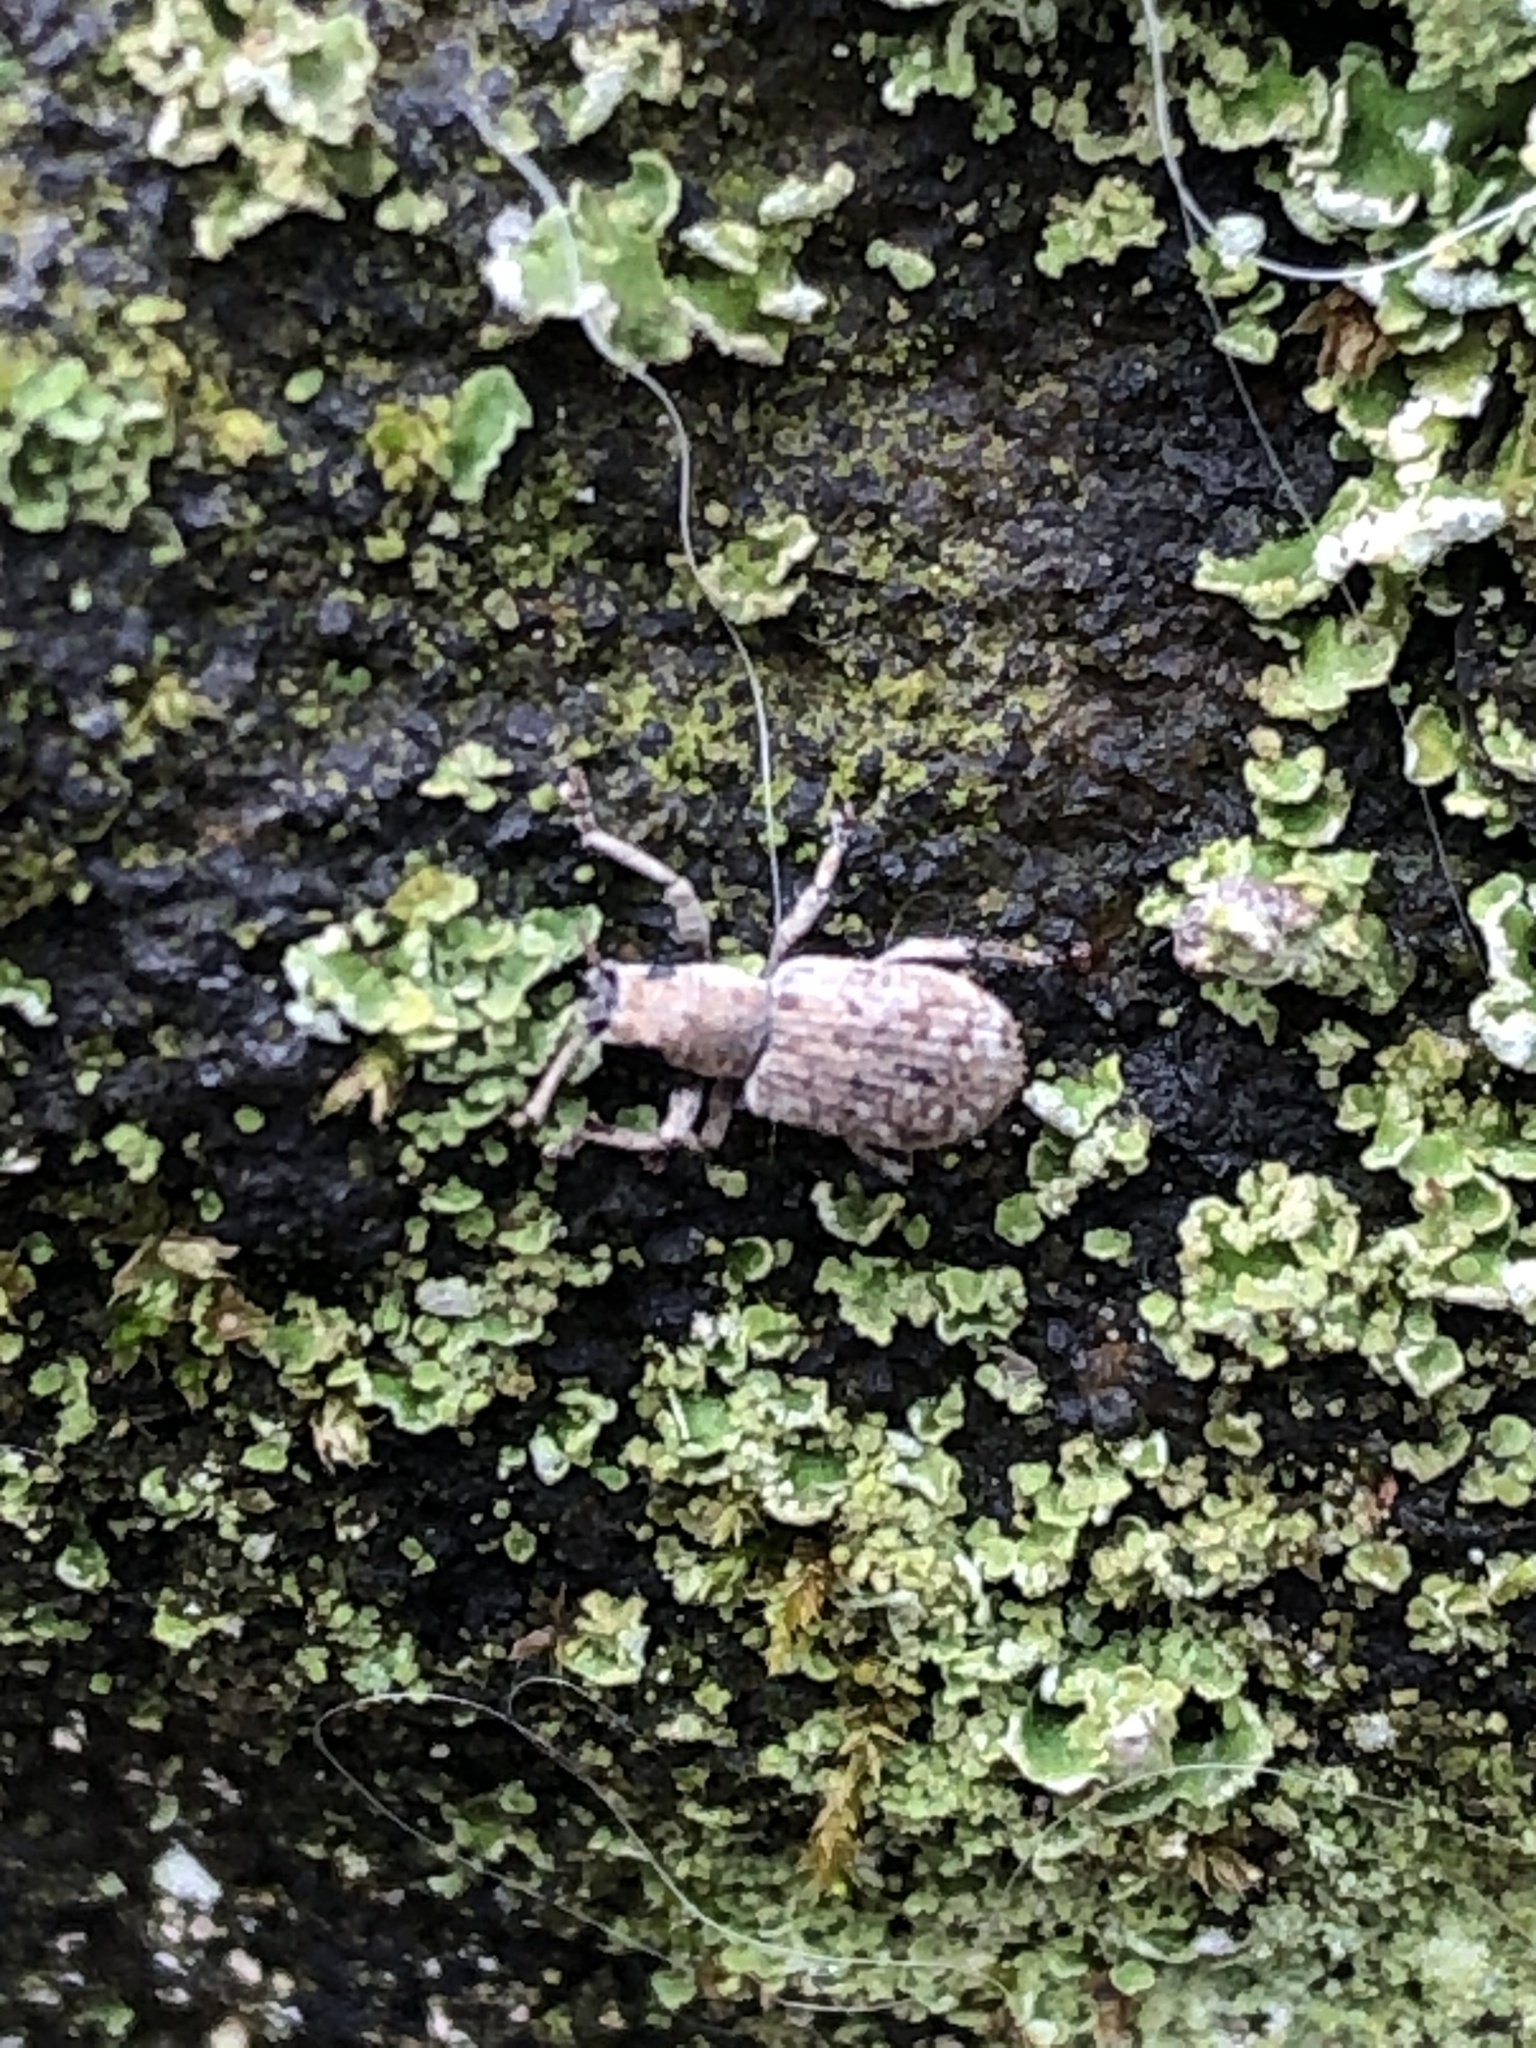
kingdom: Animalia
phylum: Arthropoda
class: Insecta
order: Coleoptera
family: Curculionidae
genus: Pseudoedophrys
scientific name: Pseudoedophrys hilleri
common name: Weevil
